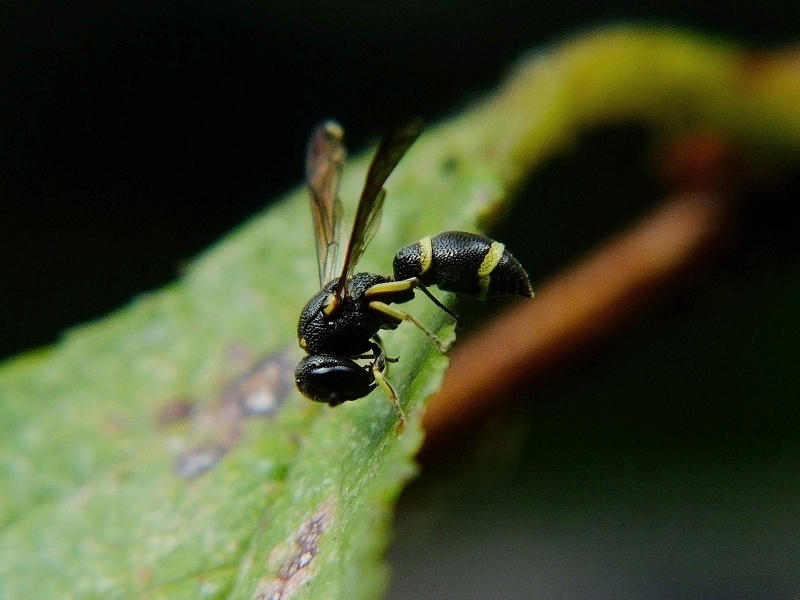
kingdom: Animalia
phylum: Arthropoda
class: Insecta
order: Hymenoptera
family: Eumenidae
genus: Stenodynerus
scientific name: Stenodynerus
